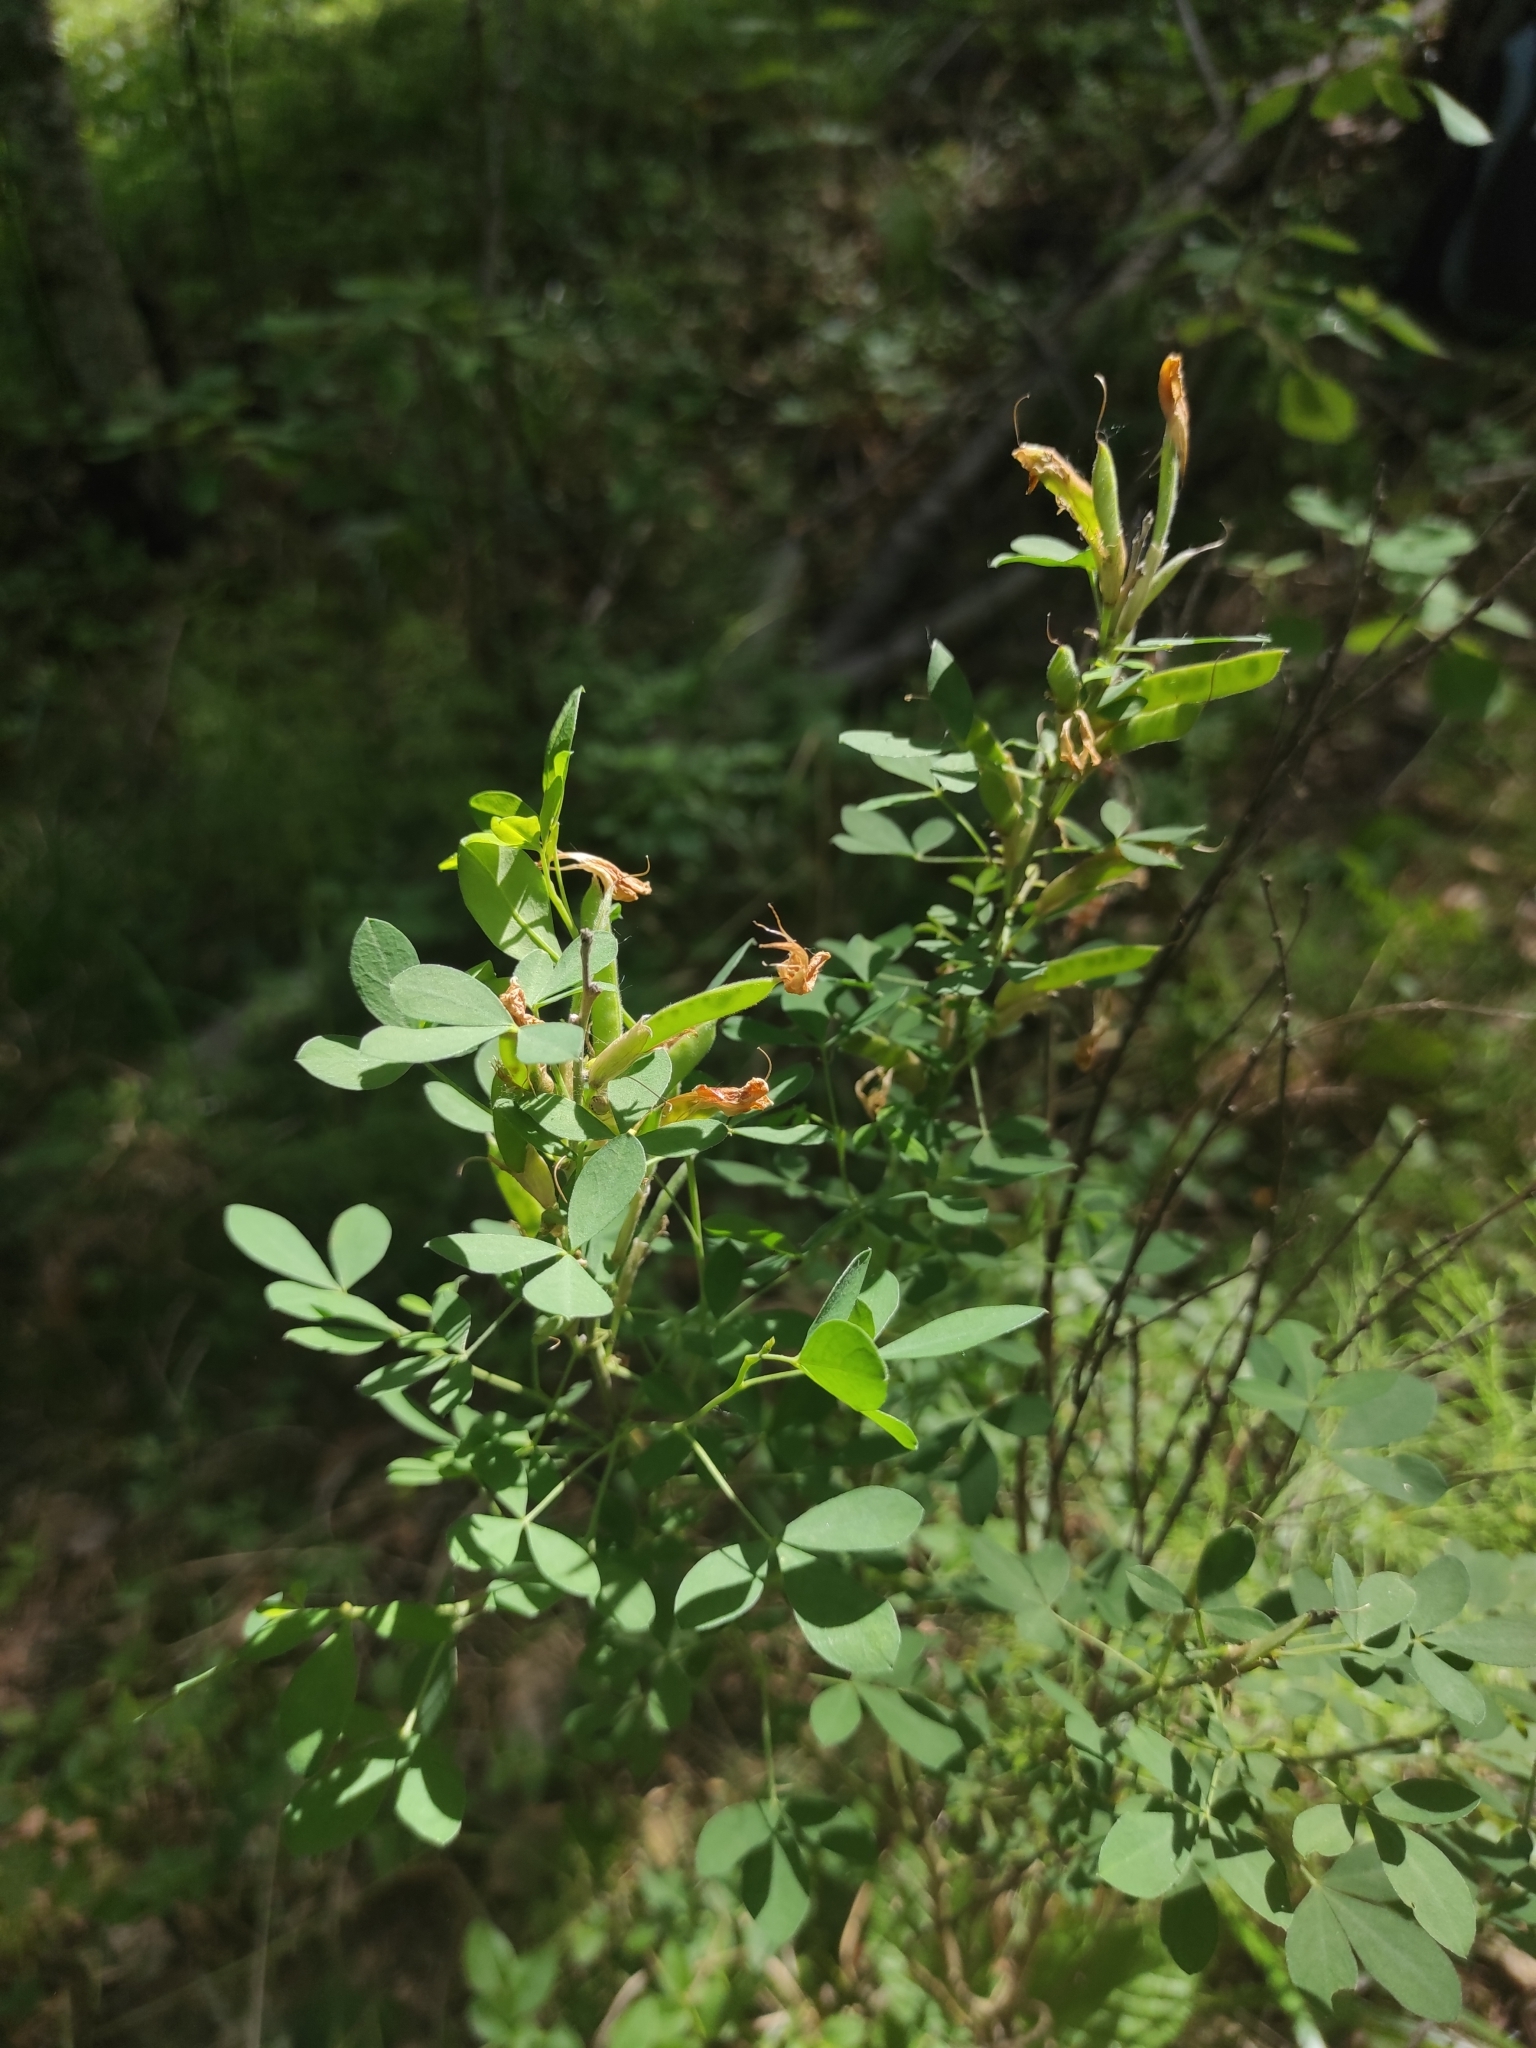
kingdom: Plantae
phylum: Tracheophyta
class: Magnoliopsida
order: Fabales
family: Fabaceae
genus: Chamaecytisus
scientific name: Chamaecytisus ruthenicus
